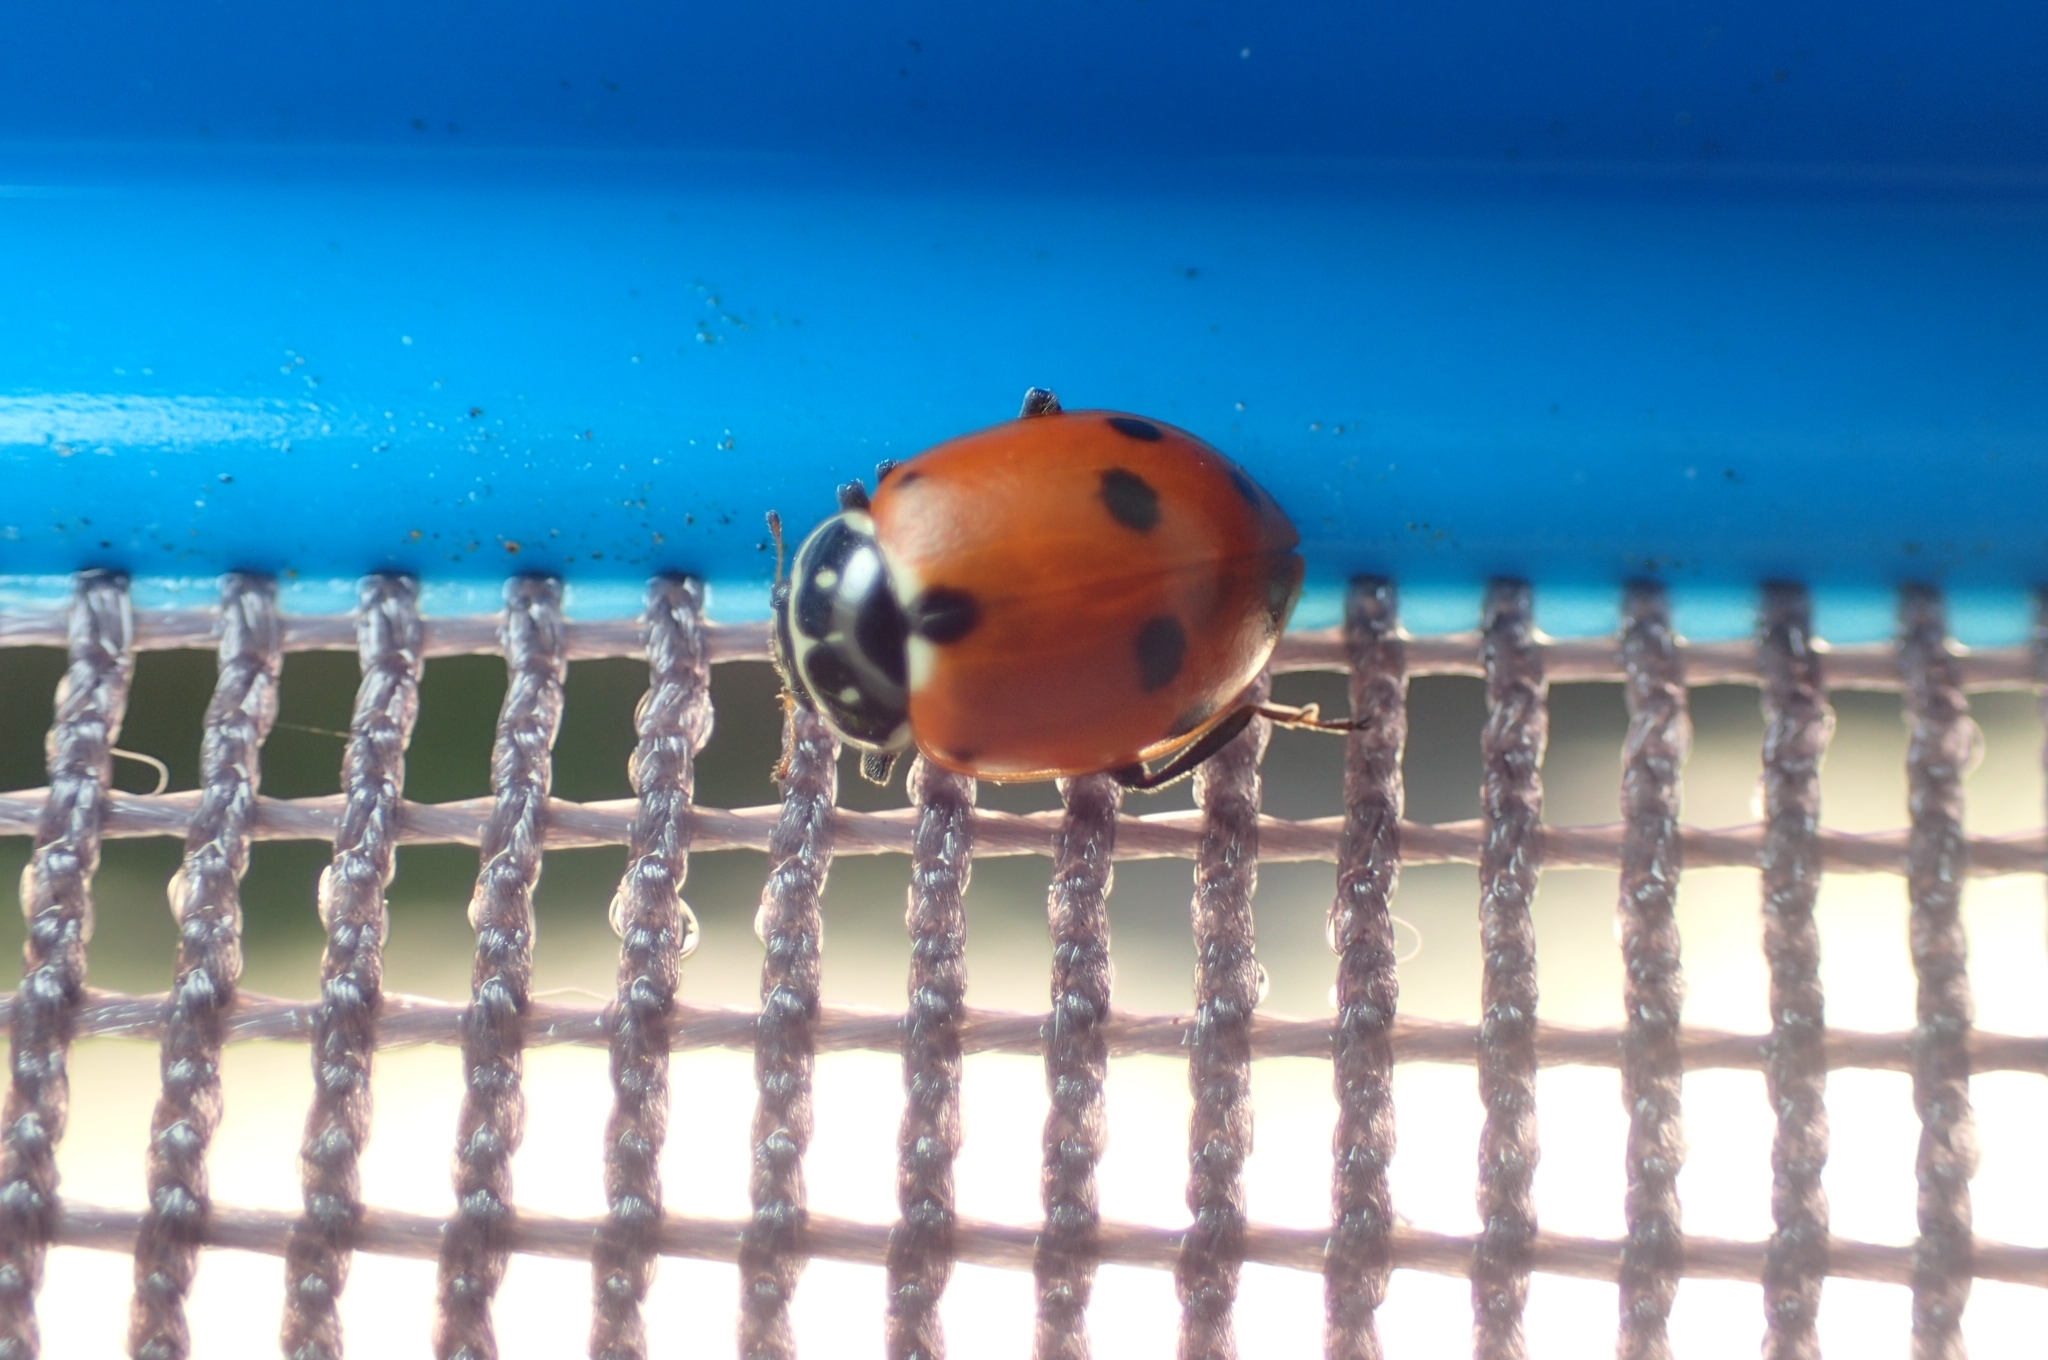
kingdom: Animalia
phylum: Arthropoda
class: Insecta
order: Coleoptera
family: Coccinellidae
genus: Hippodamia
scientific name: Hippodamia variegata
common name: Ladybird beetle
